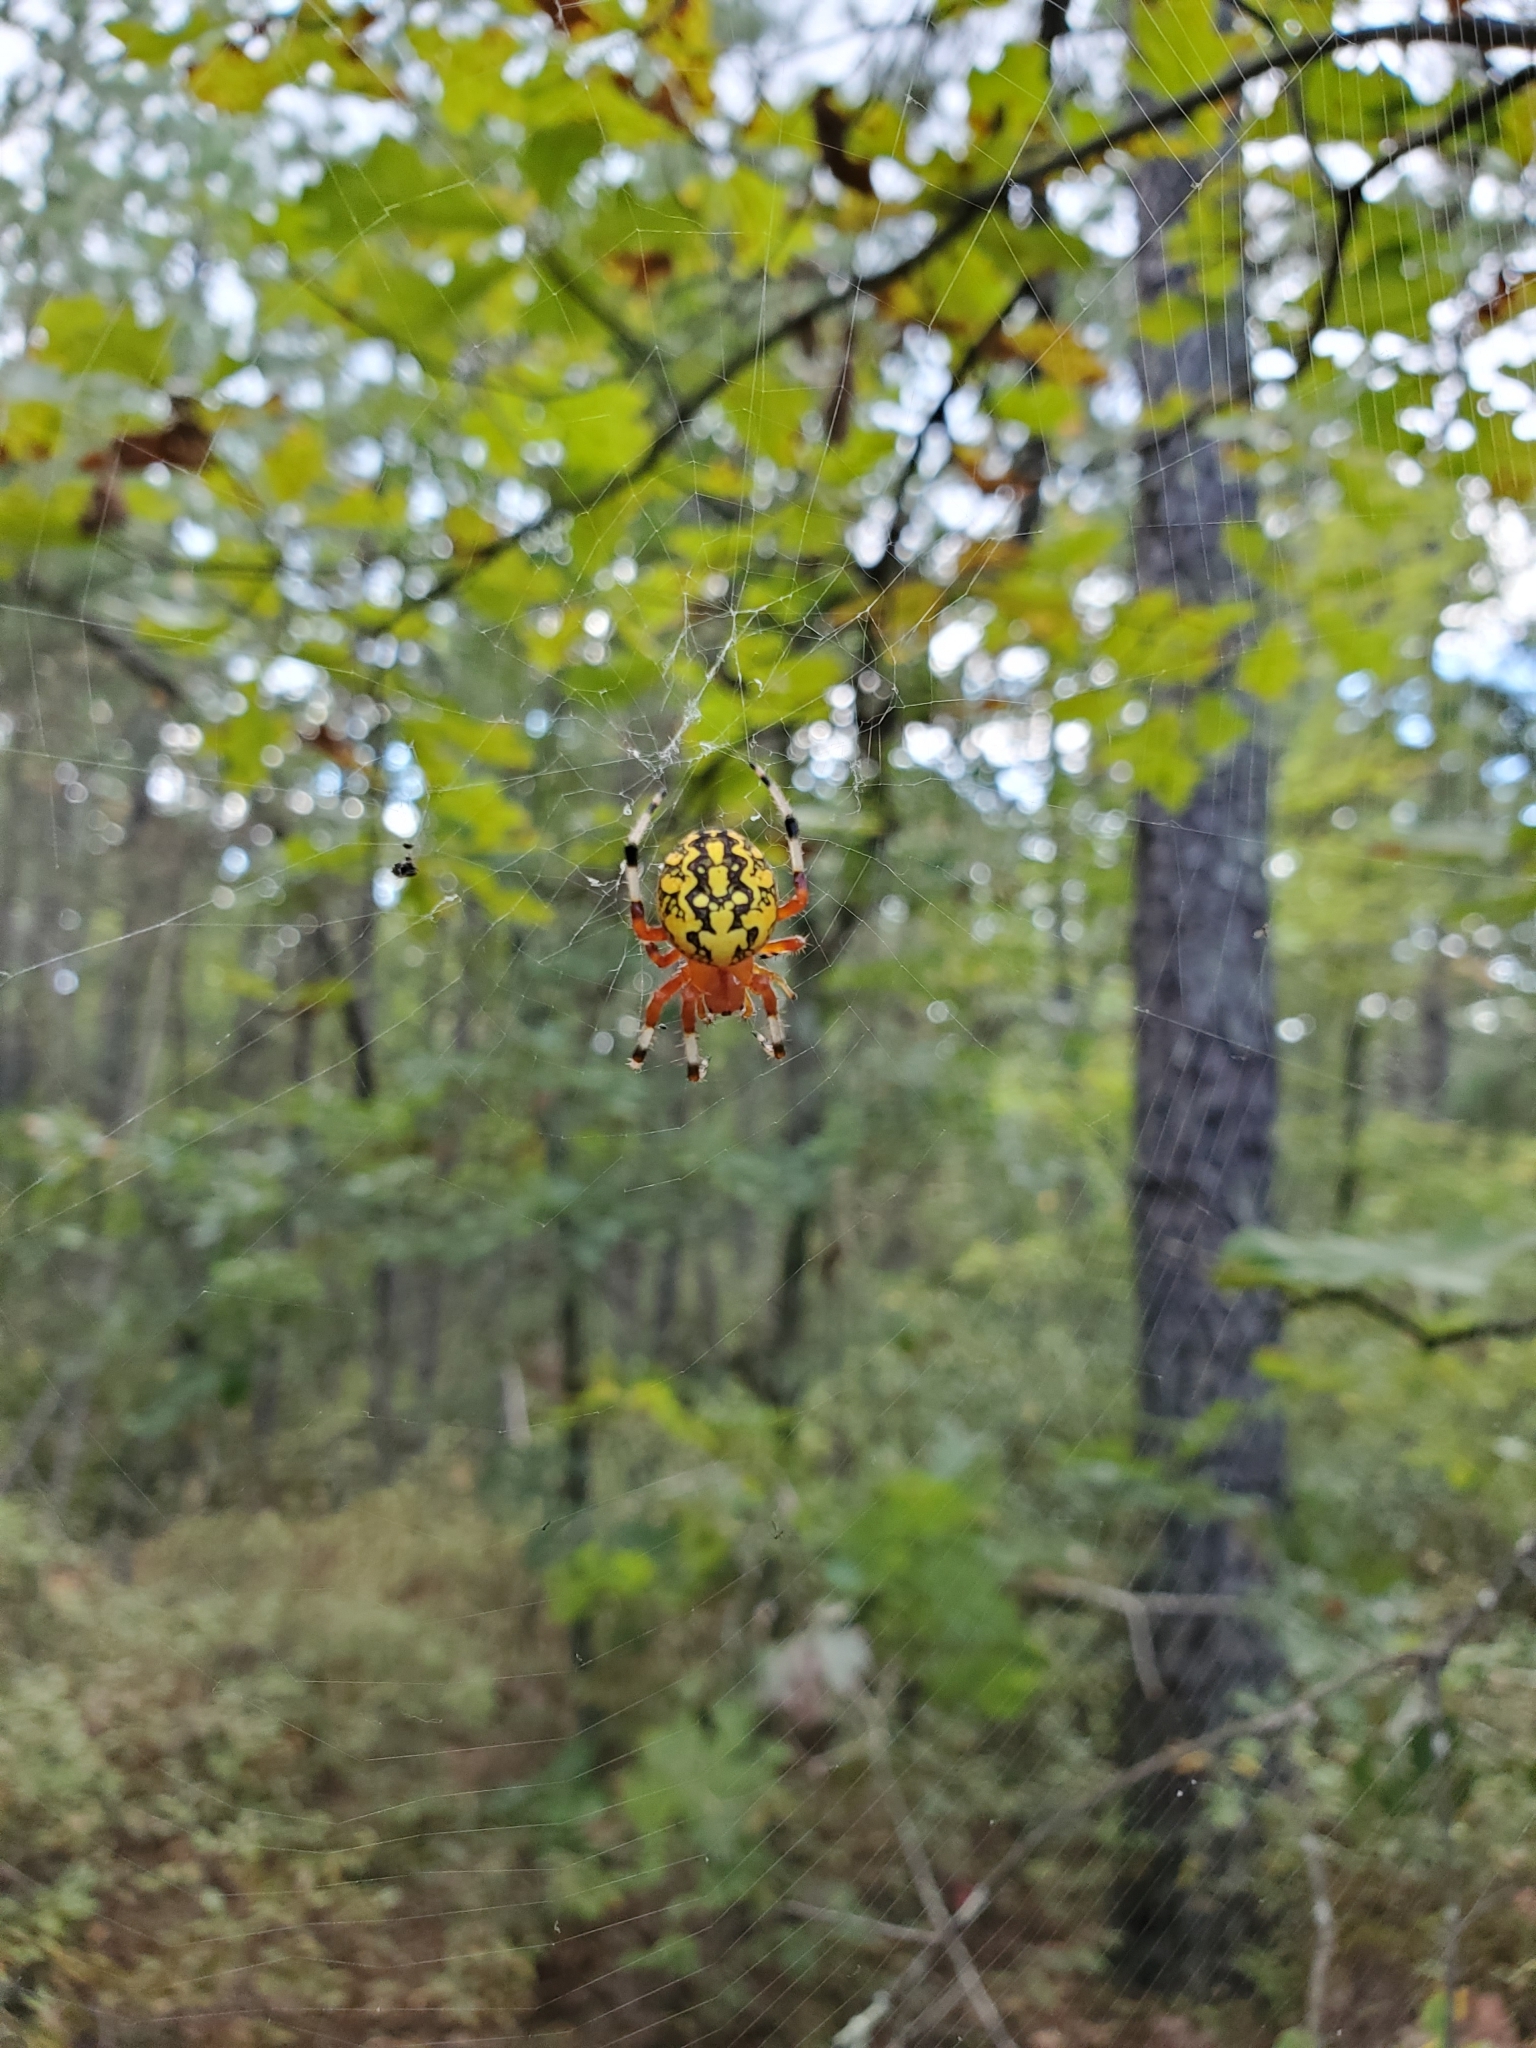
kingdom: Animalia
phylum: Arthropoda
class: Arachnida
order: Araneae
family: Araneidae
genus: Araneus
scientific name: Araneus marmoreus
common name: Marbled orbweaver
